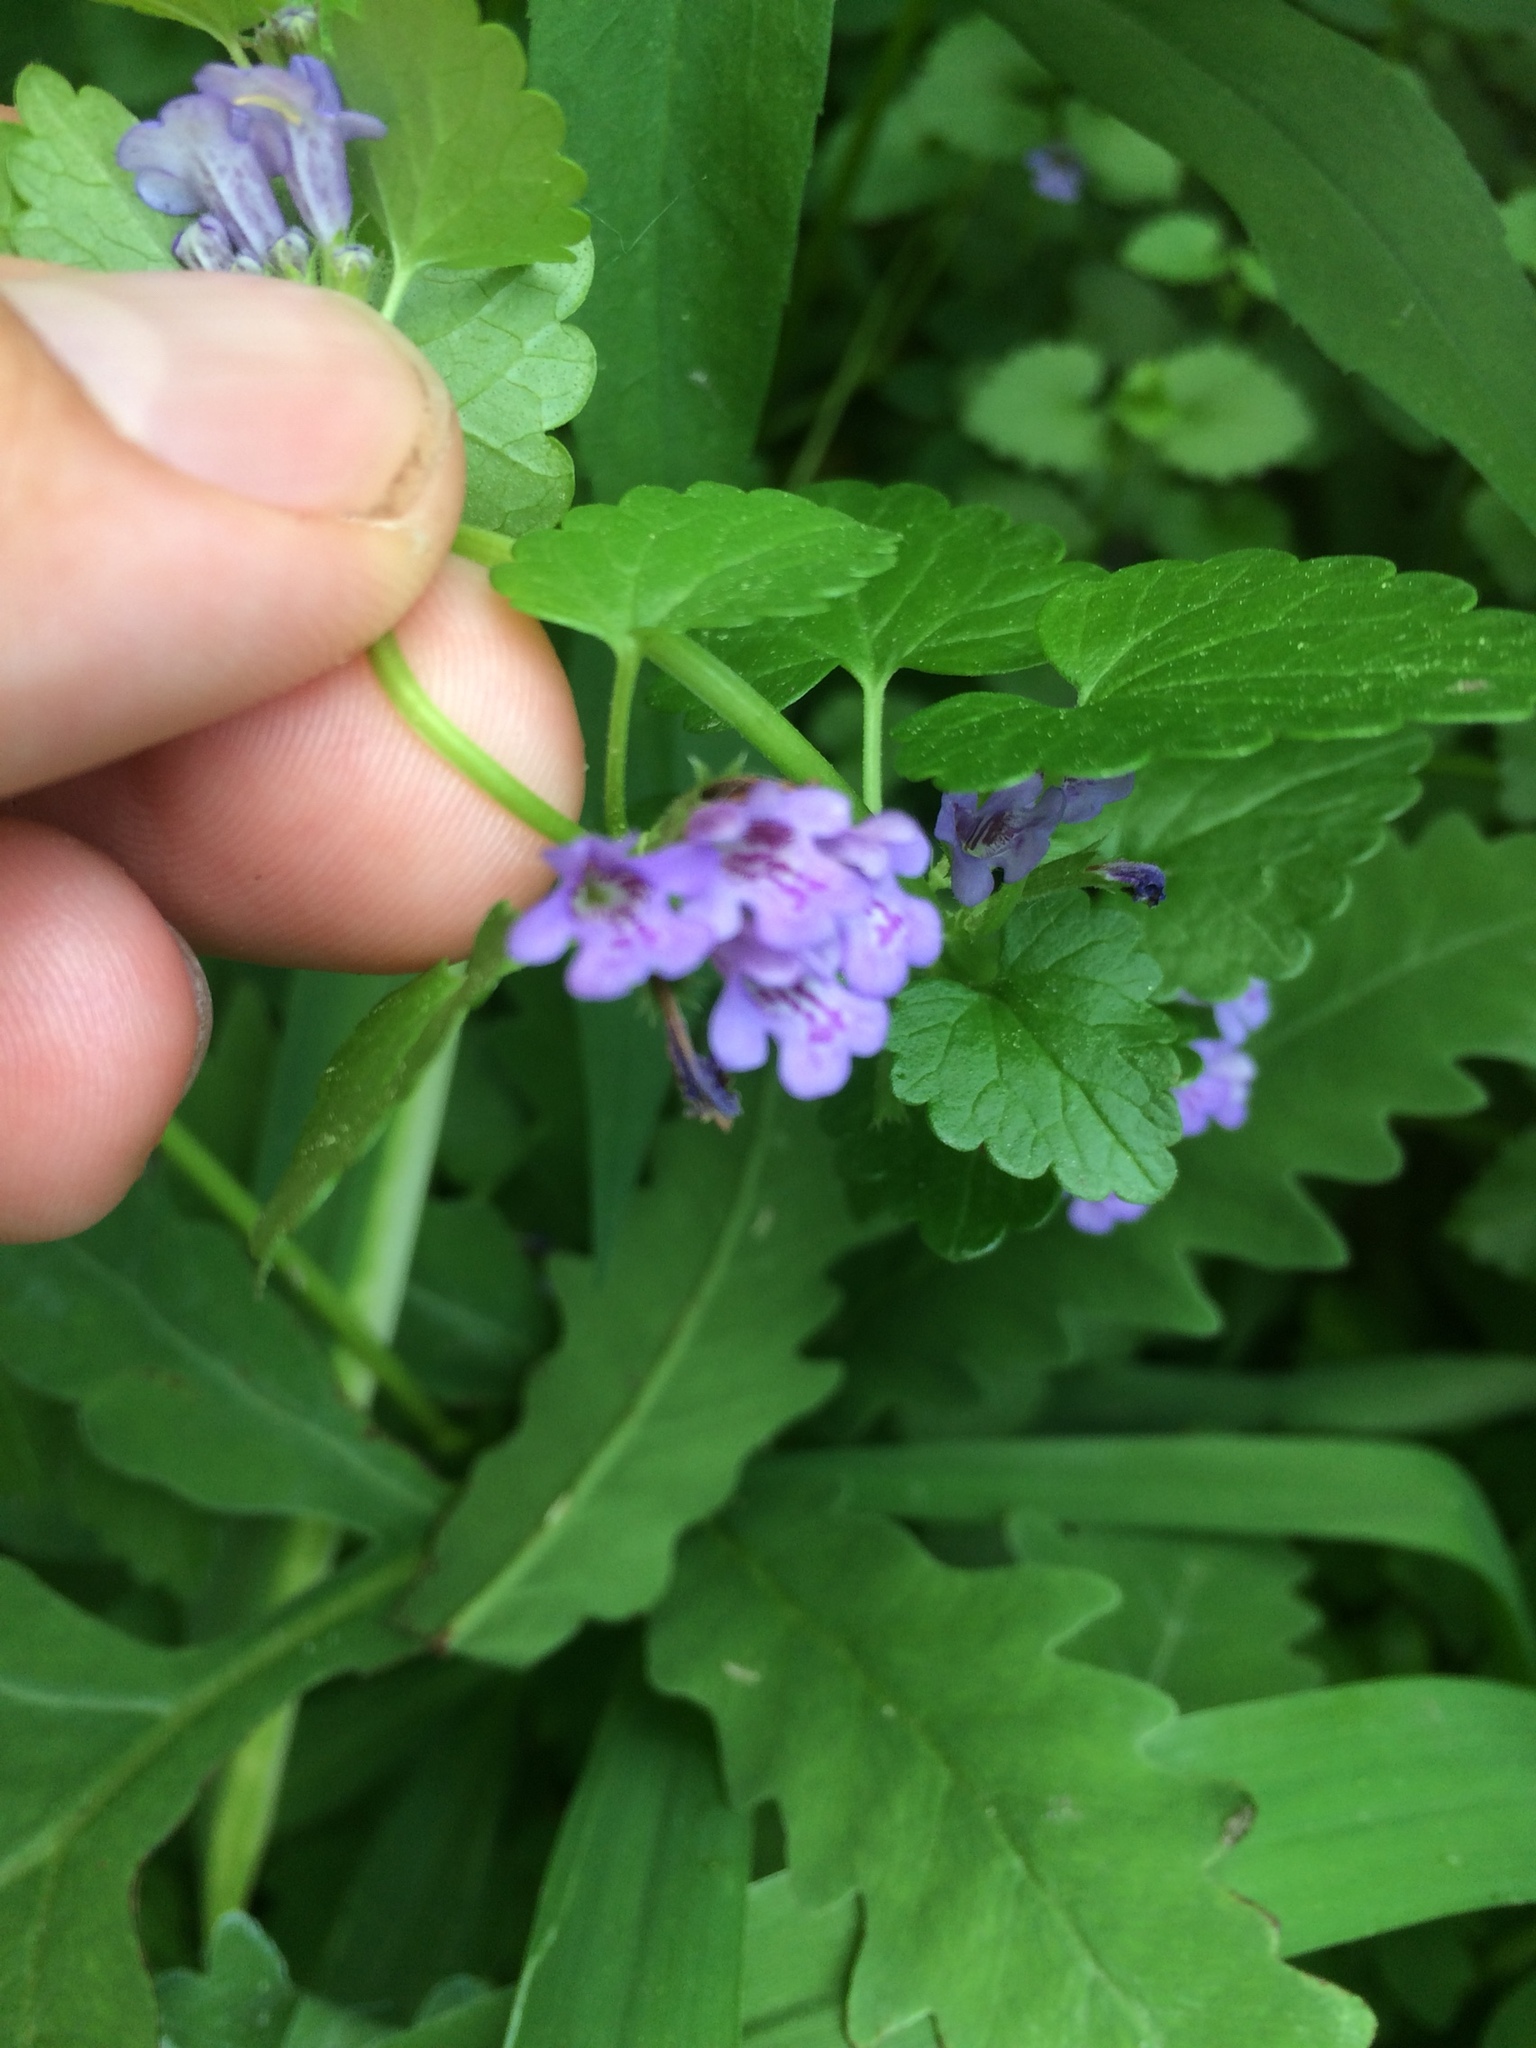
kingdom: Plantae
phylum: Tracheophyta
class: Magnoliopsida
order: Lamiales
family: Lamiaceae
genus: Glechoma
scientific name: Glechoma hederacea
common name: Ground ivy
